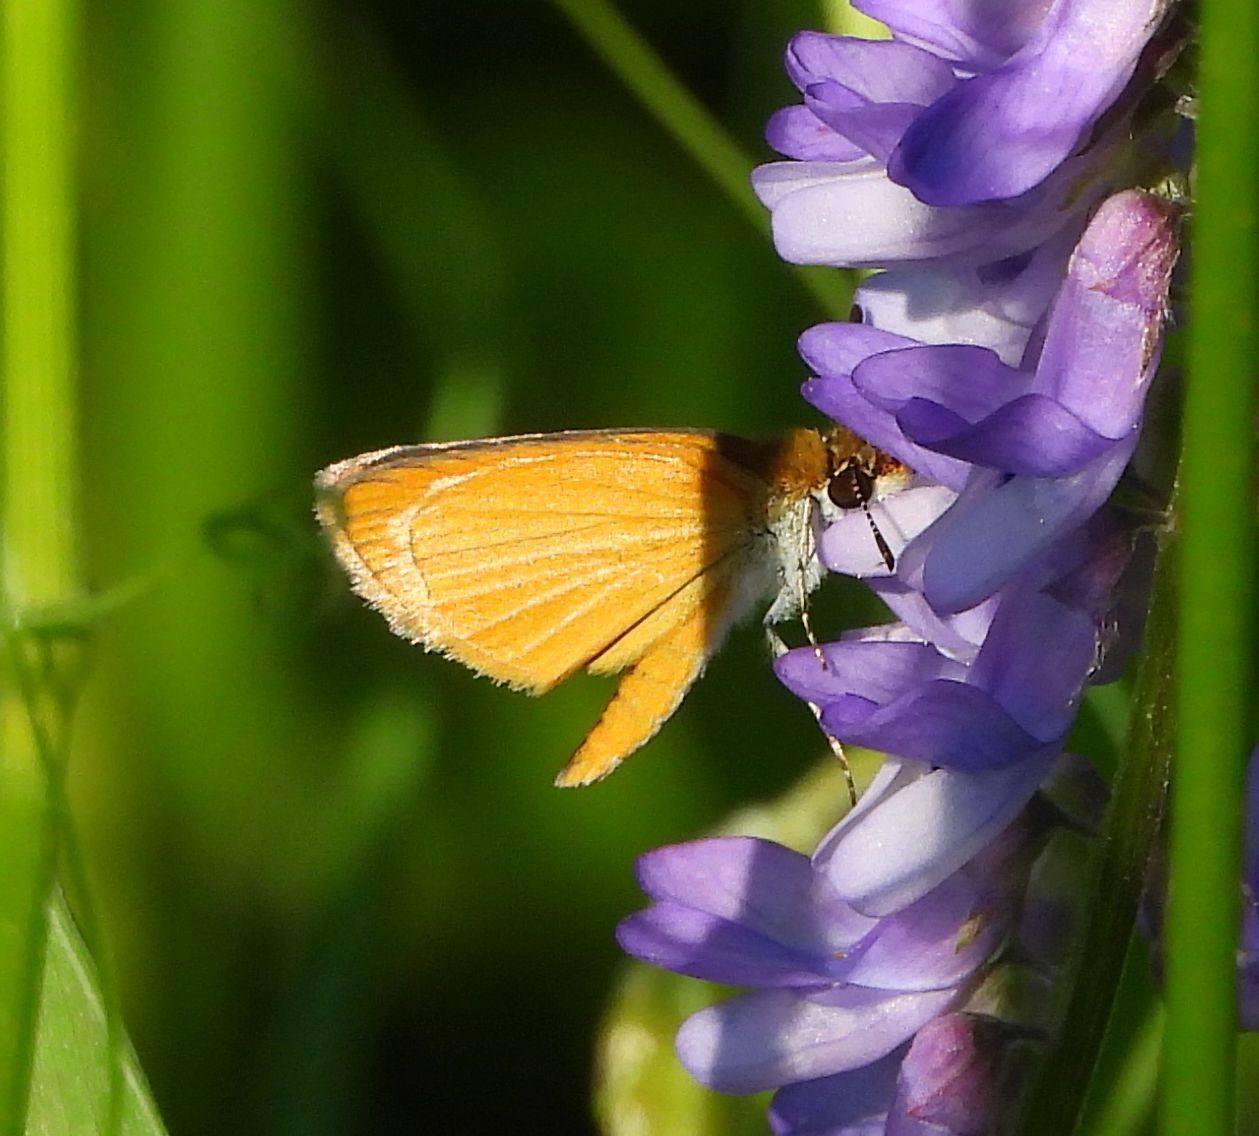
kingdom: Animalia
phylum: Arthropoda
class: Insecta
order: Lepidoptera
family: Hesperiidae
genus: Ancyloxypha
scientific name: Ancyloxypha numitor
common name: Least skipper
